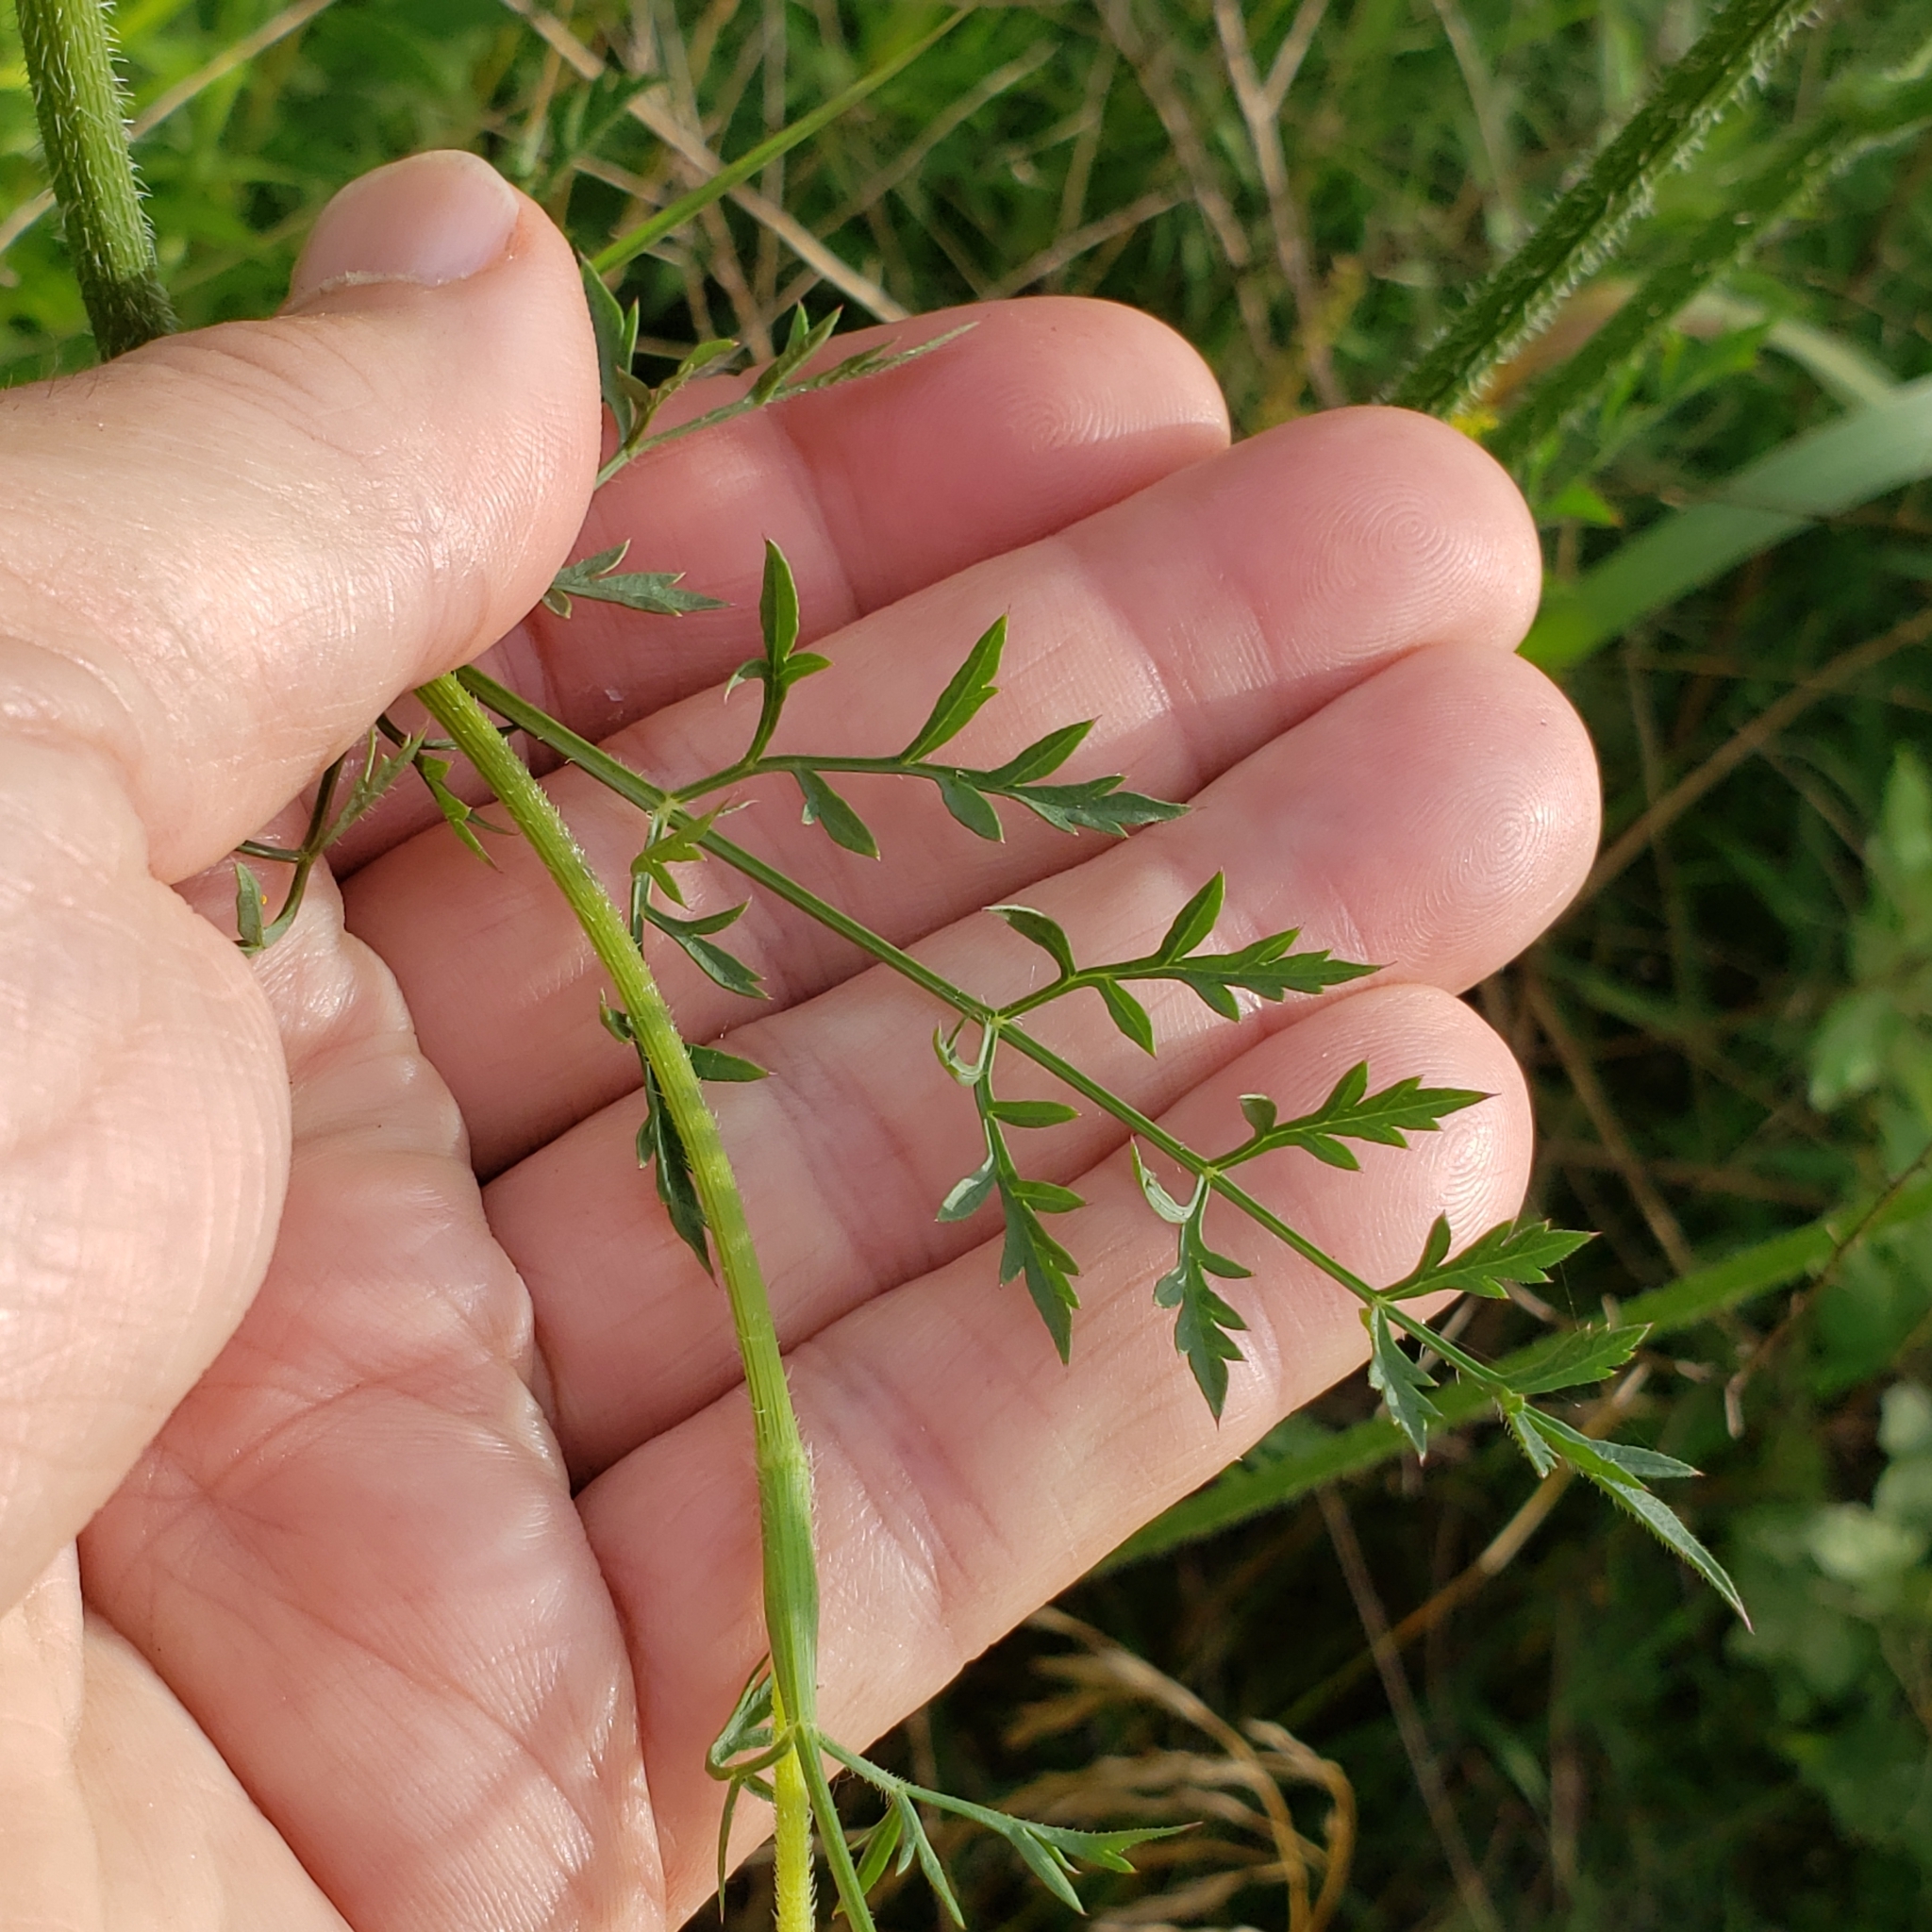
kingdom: Plantae
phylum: Tracheophyta
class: Magnoliopsida
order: Apiales
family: Apiaceae
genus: Daucus
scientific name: Daucus carota
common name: Wild carrot
